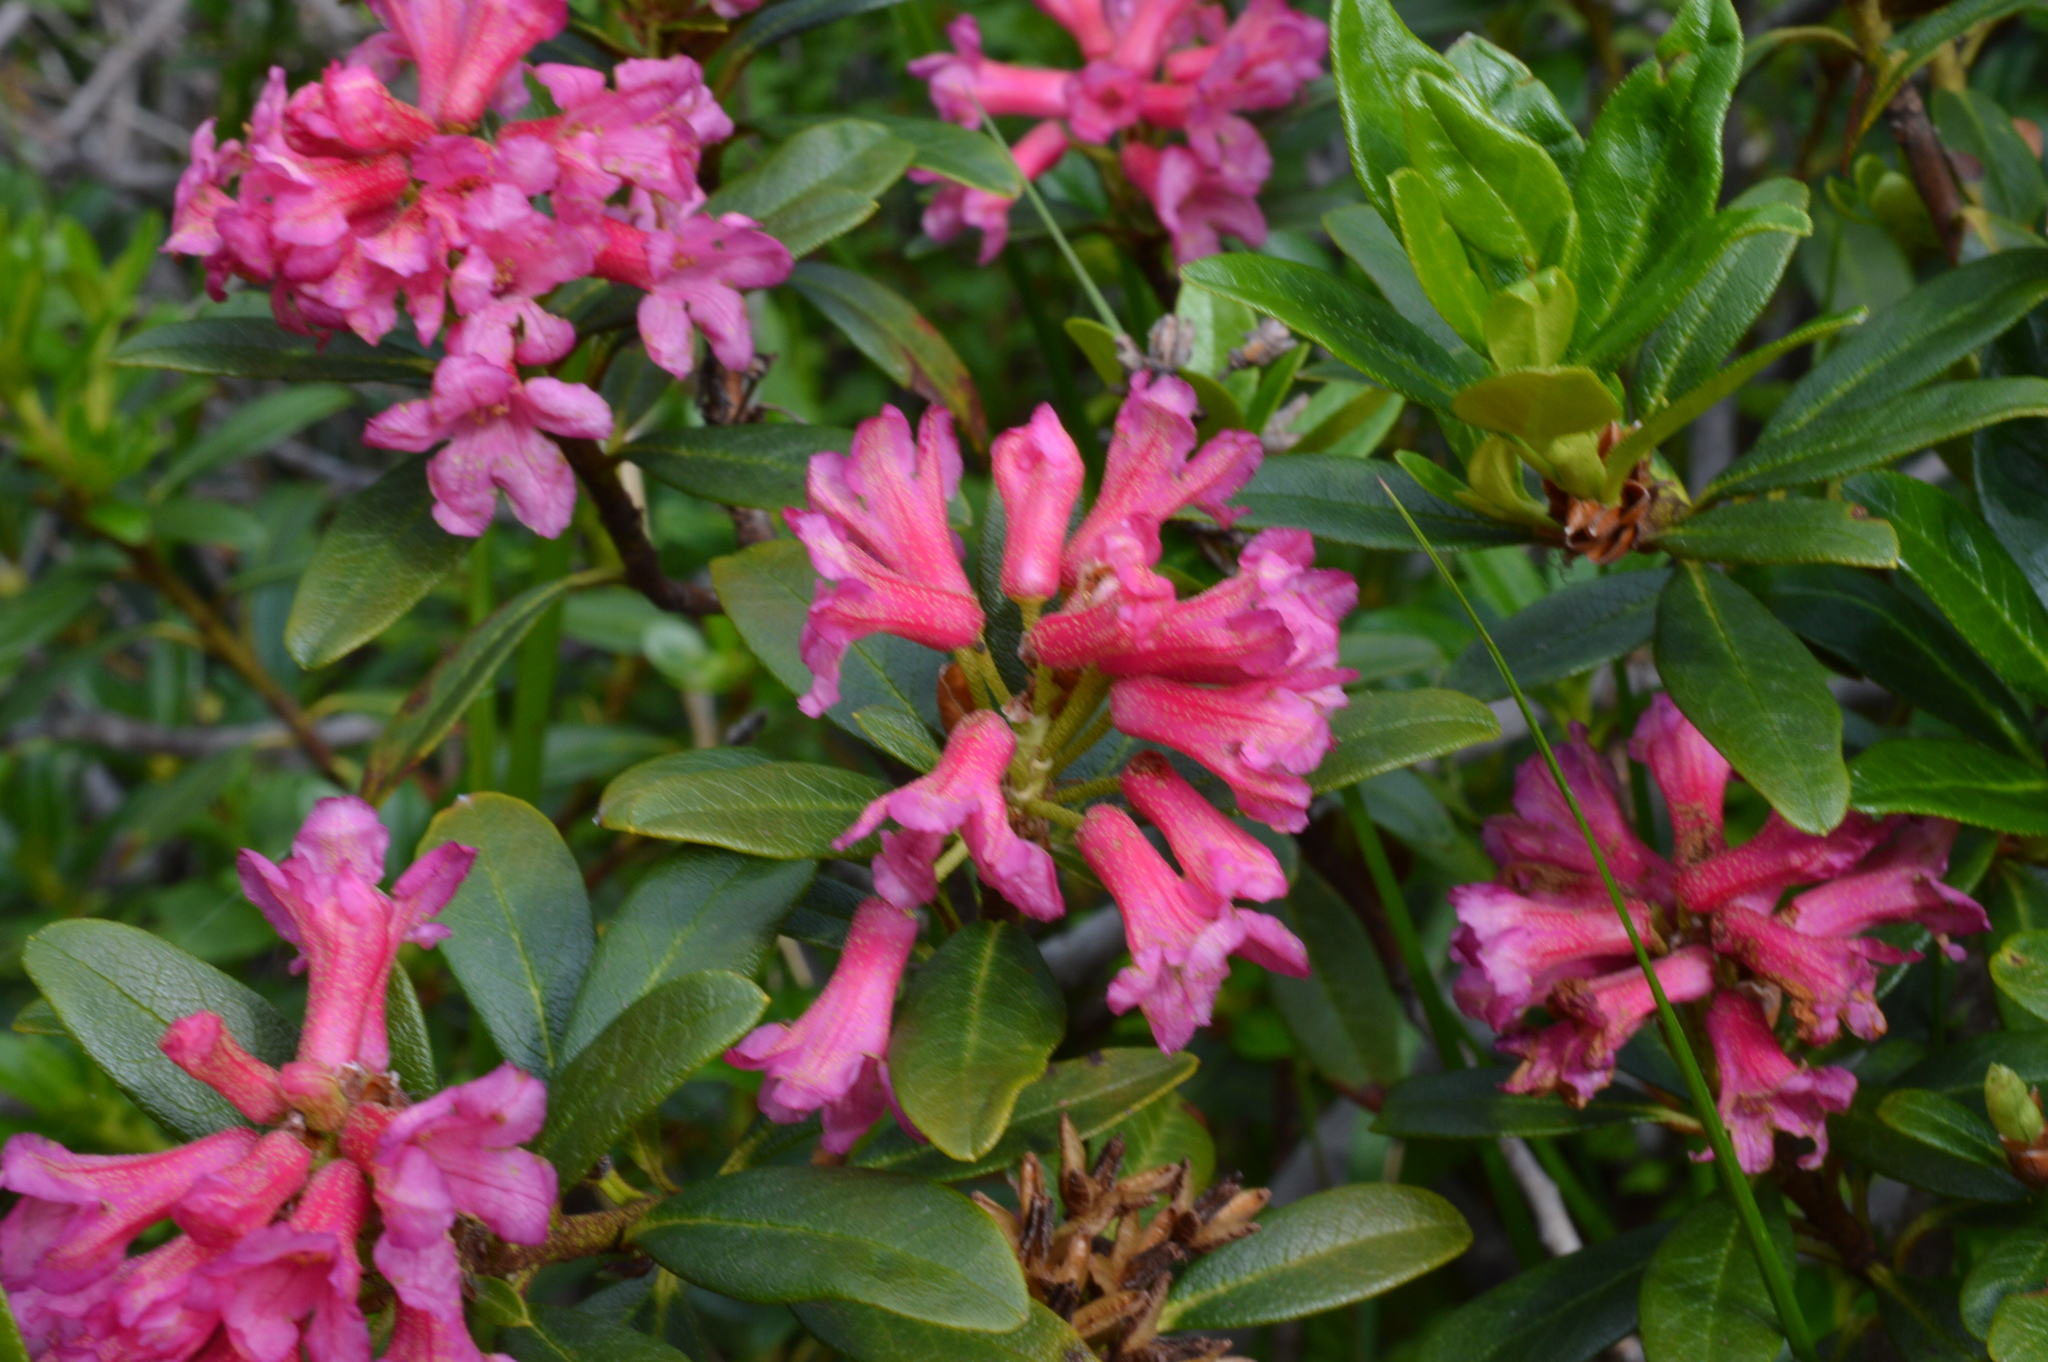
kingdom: Plantae
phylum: Tracheophyta
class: Magnoliopsida
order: Ericales
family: Ericaceae
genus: Rhododendron
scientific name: Rhododendron ferrugineum
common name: Alpenrose
